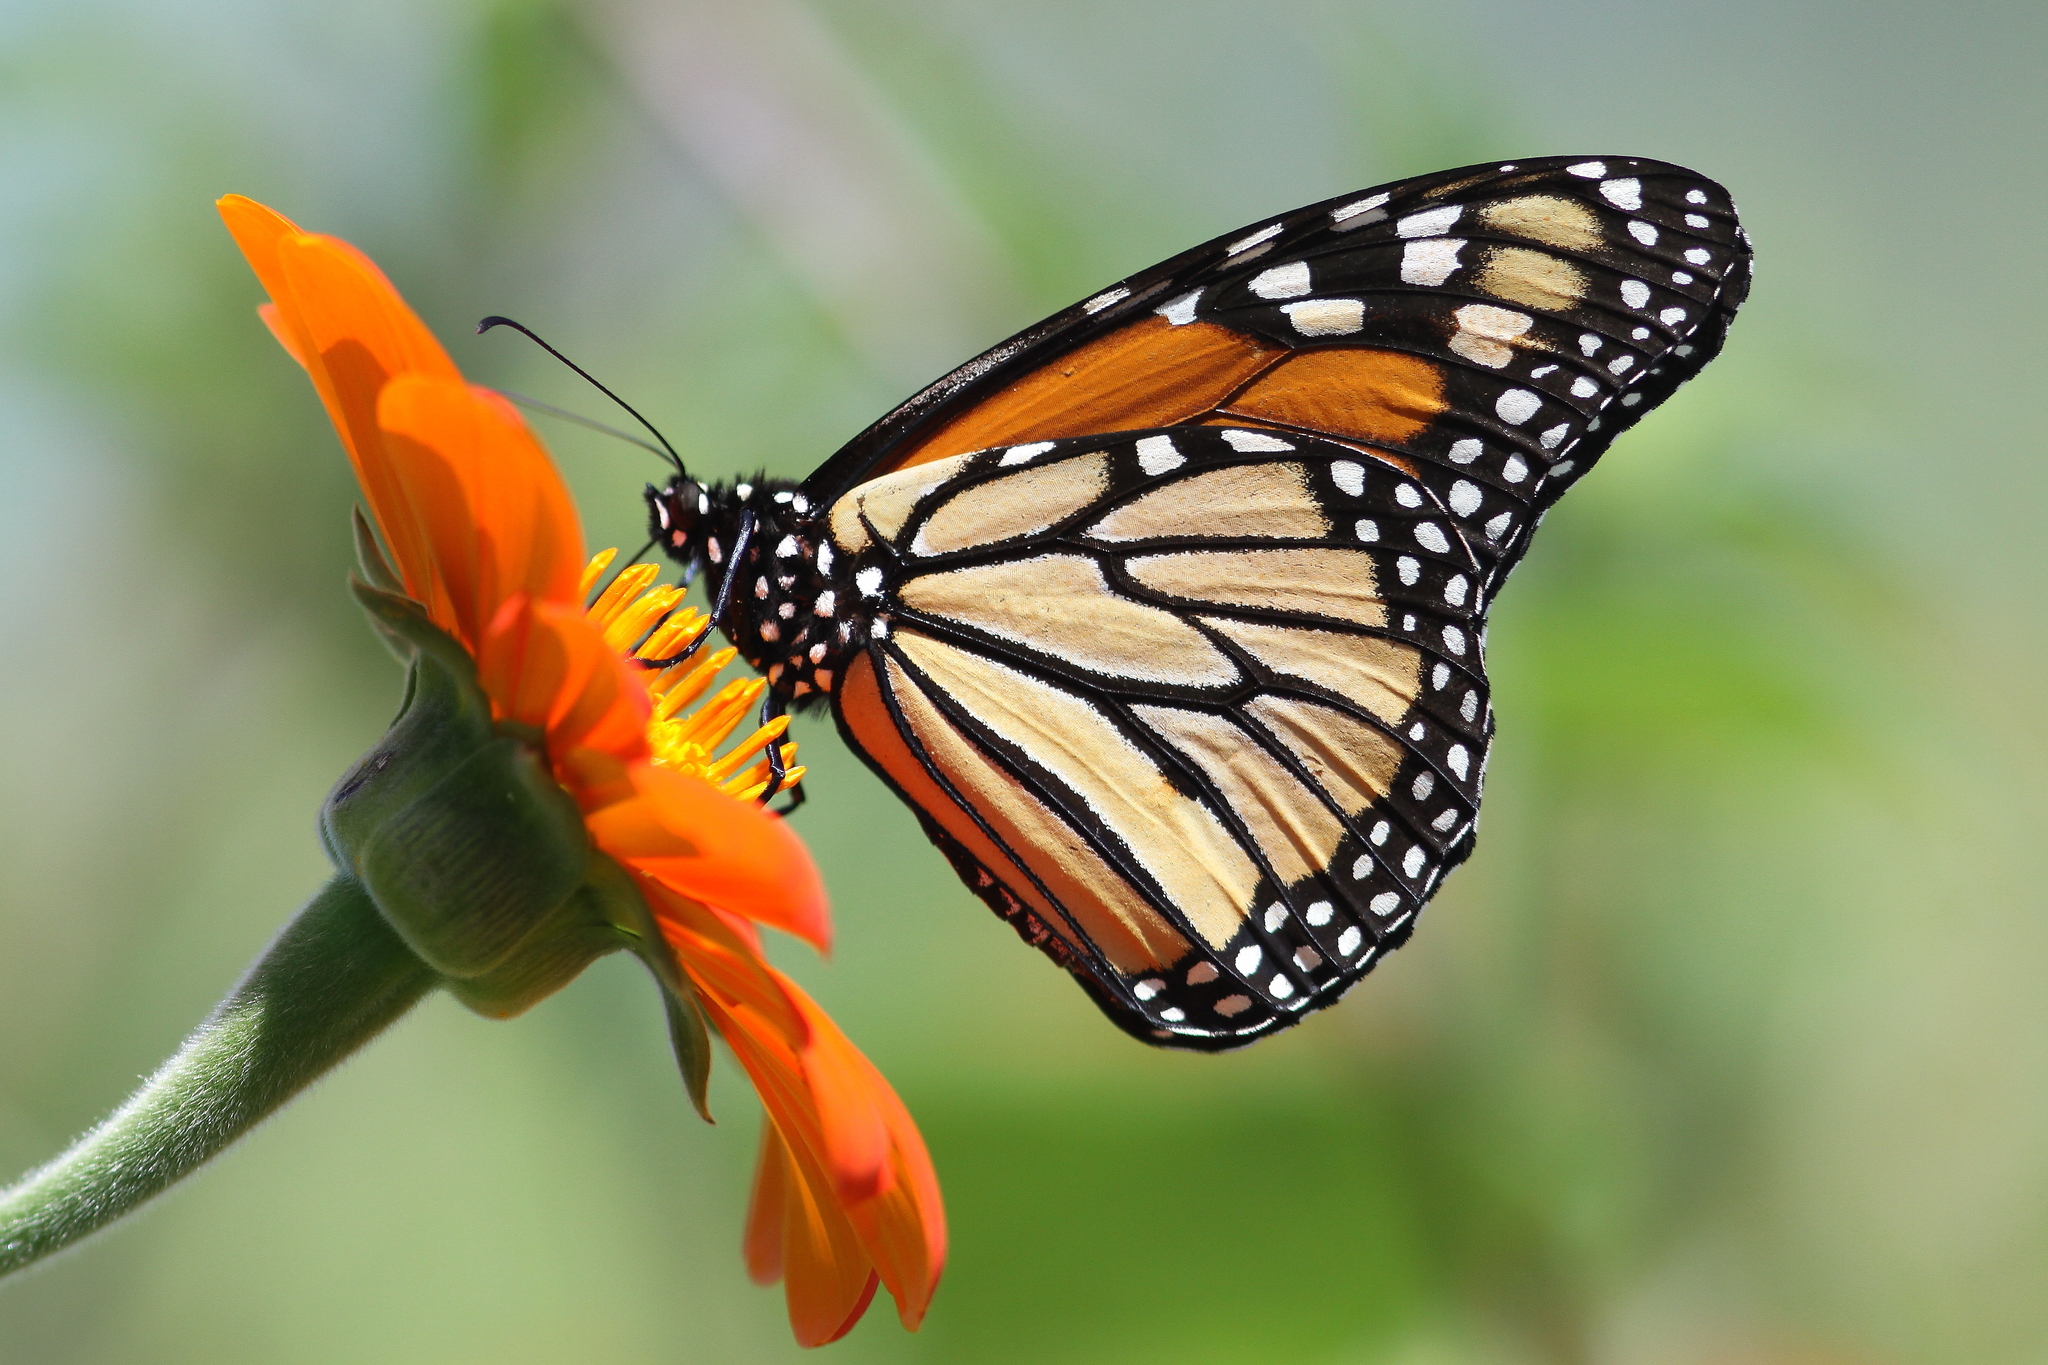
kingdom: Animalia
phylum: Arthropoda
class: Insecta
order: Lepidoptera
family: Nymphalidae
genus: Danaus
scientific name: Danaus plexippus
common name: Monarch
